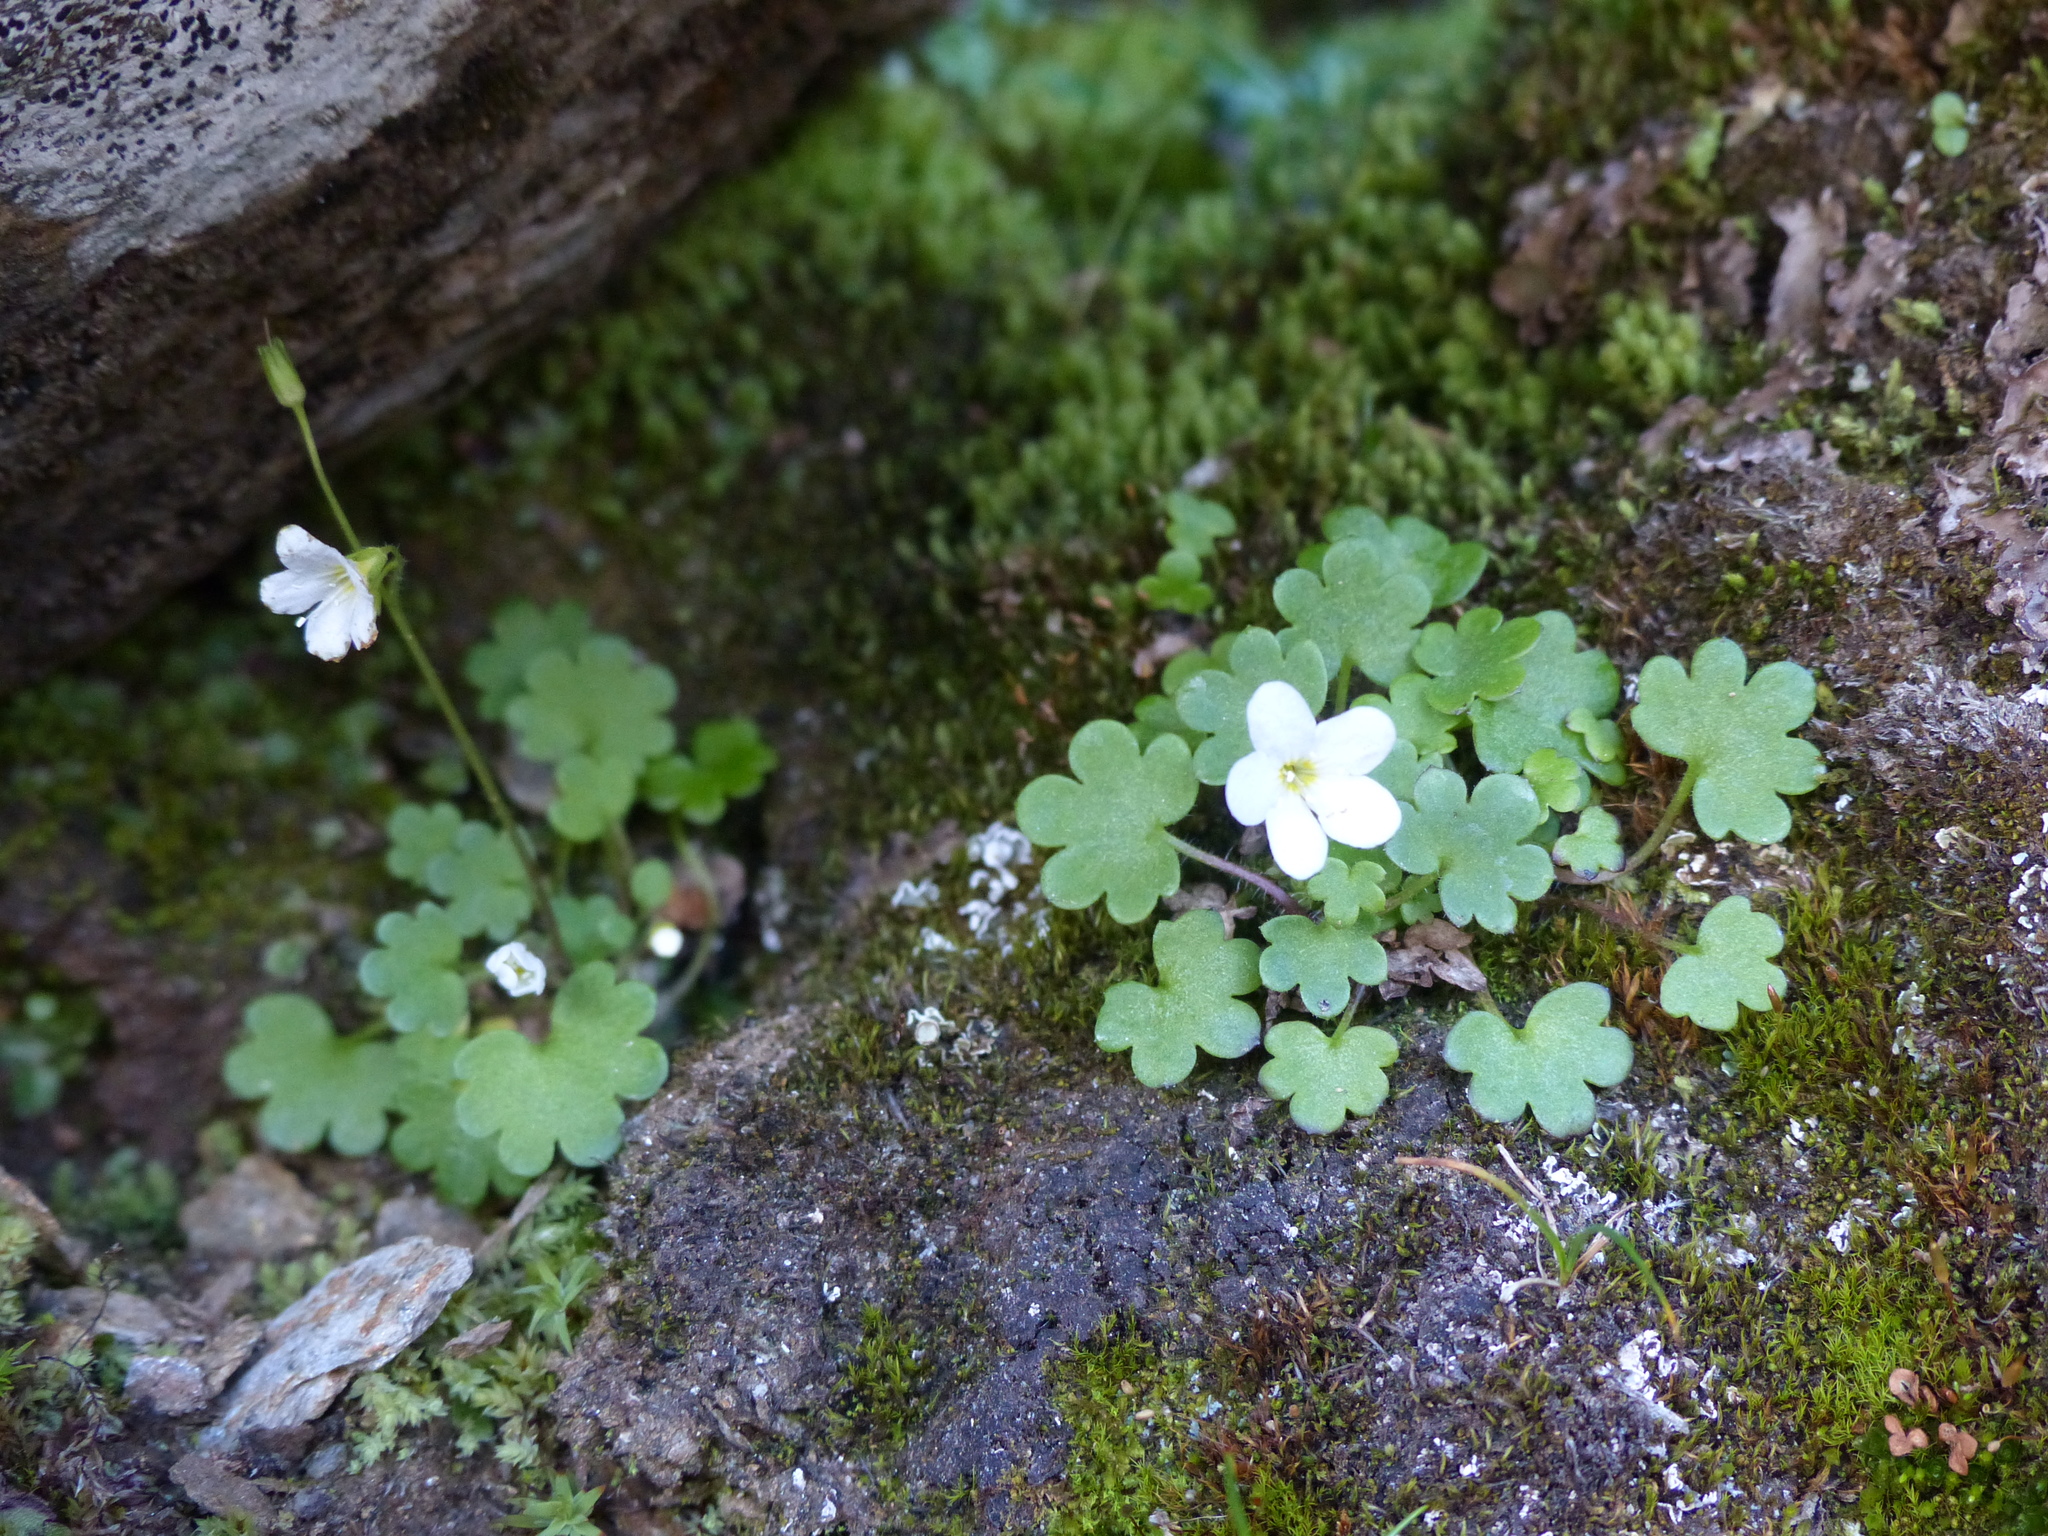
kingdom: Plantae
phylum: Tracheophyta
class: Magnoliopsida
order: Boraginales
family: Hydrophyllaceae
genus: Romanzoffia
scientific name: Romanzoffia sitchensis
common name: Sitka mistmaid
